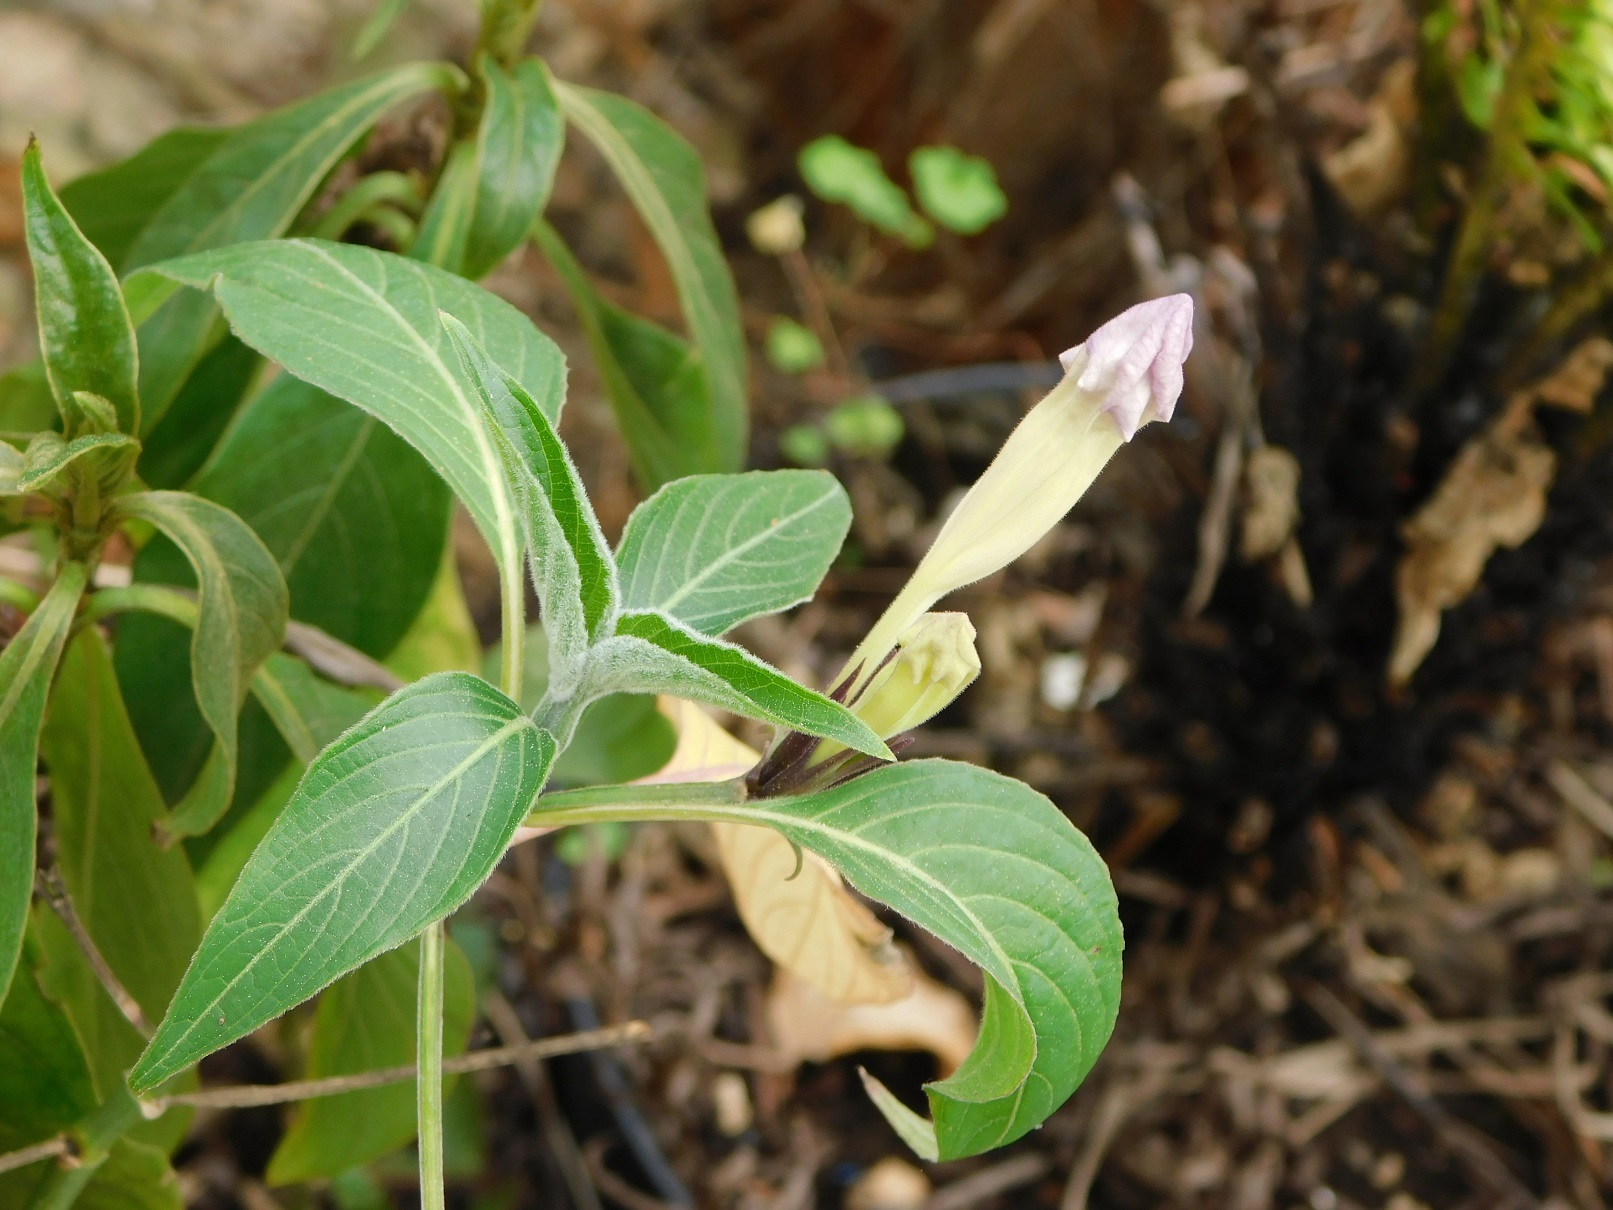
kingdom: Plantae
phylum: Tracheophyta
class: Magnoliopsida
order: Lamiales
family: Acanthaceae
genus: Ruellia
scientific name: Ruellia breedlovei
